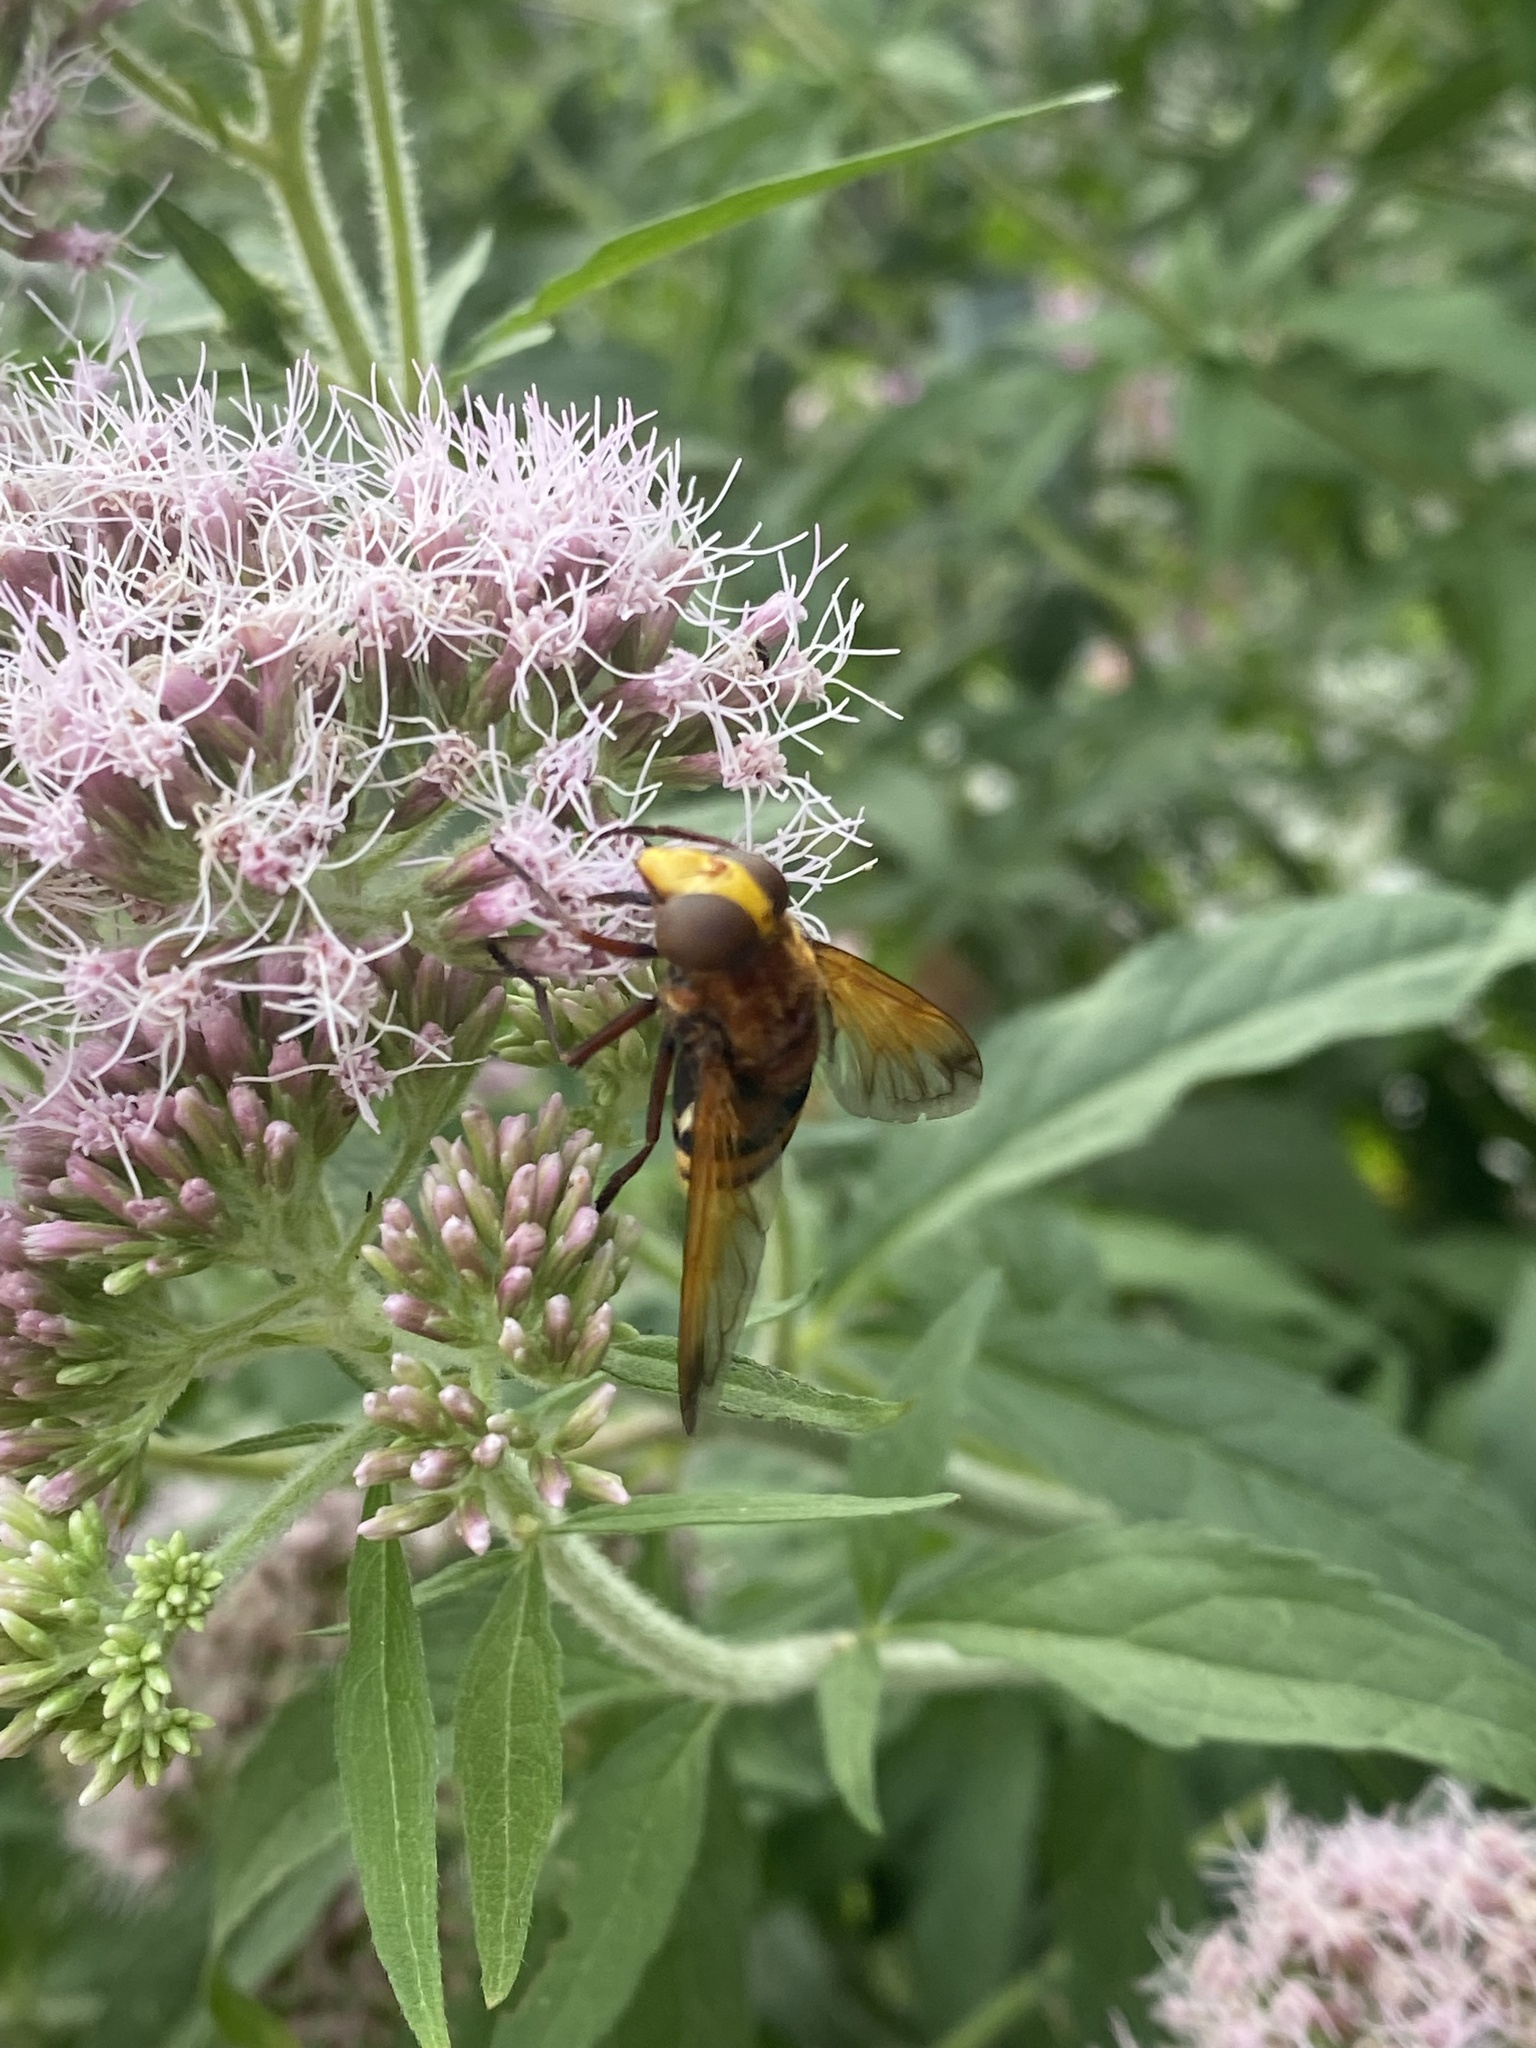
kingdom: Animalia
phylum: Arthropoda
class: Insecta
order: Diptera
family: Syrphidae
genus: Volucella
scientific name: Volucella zonaria
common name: Hornet hoverfly
